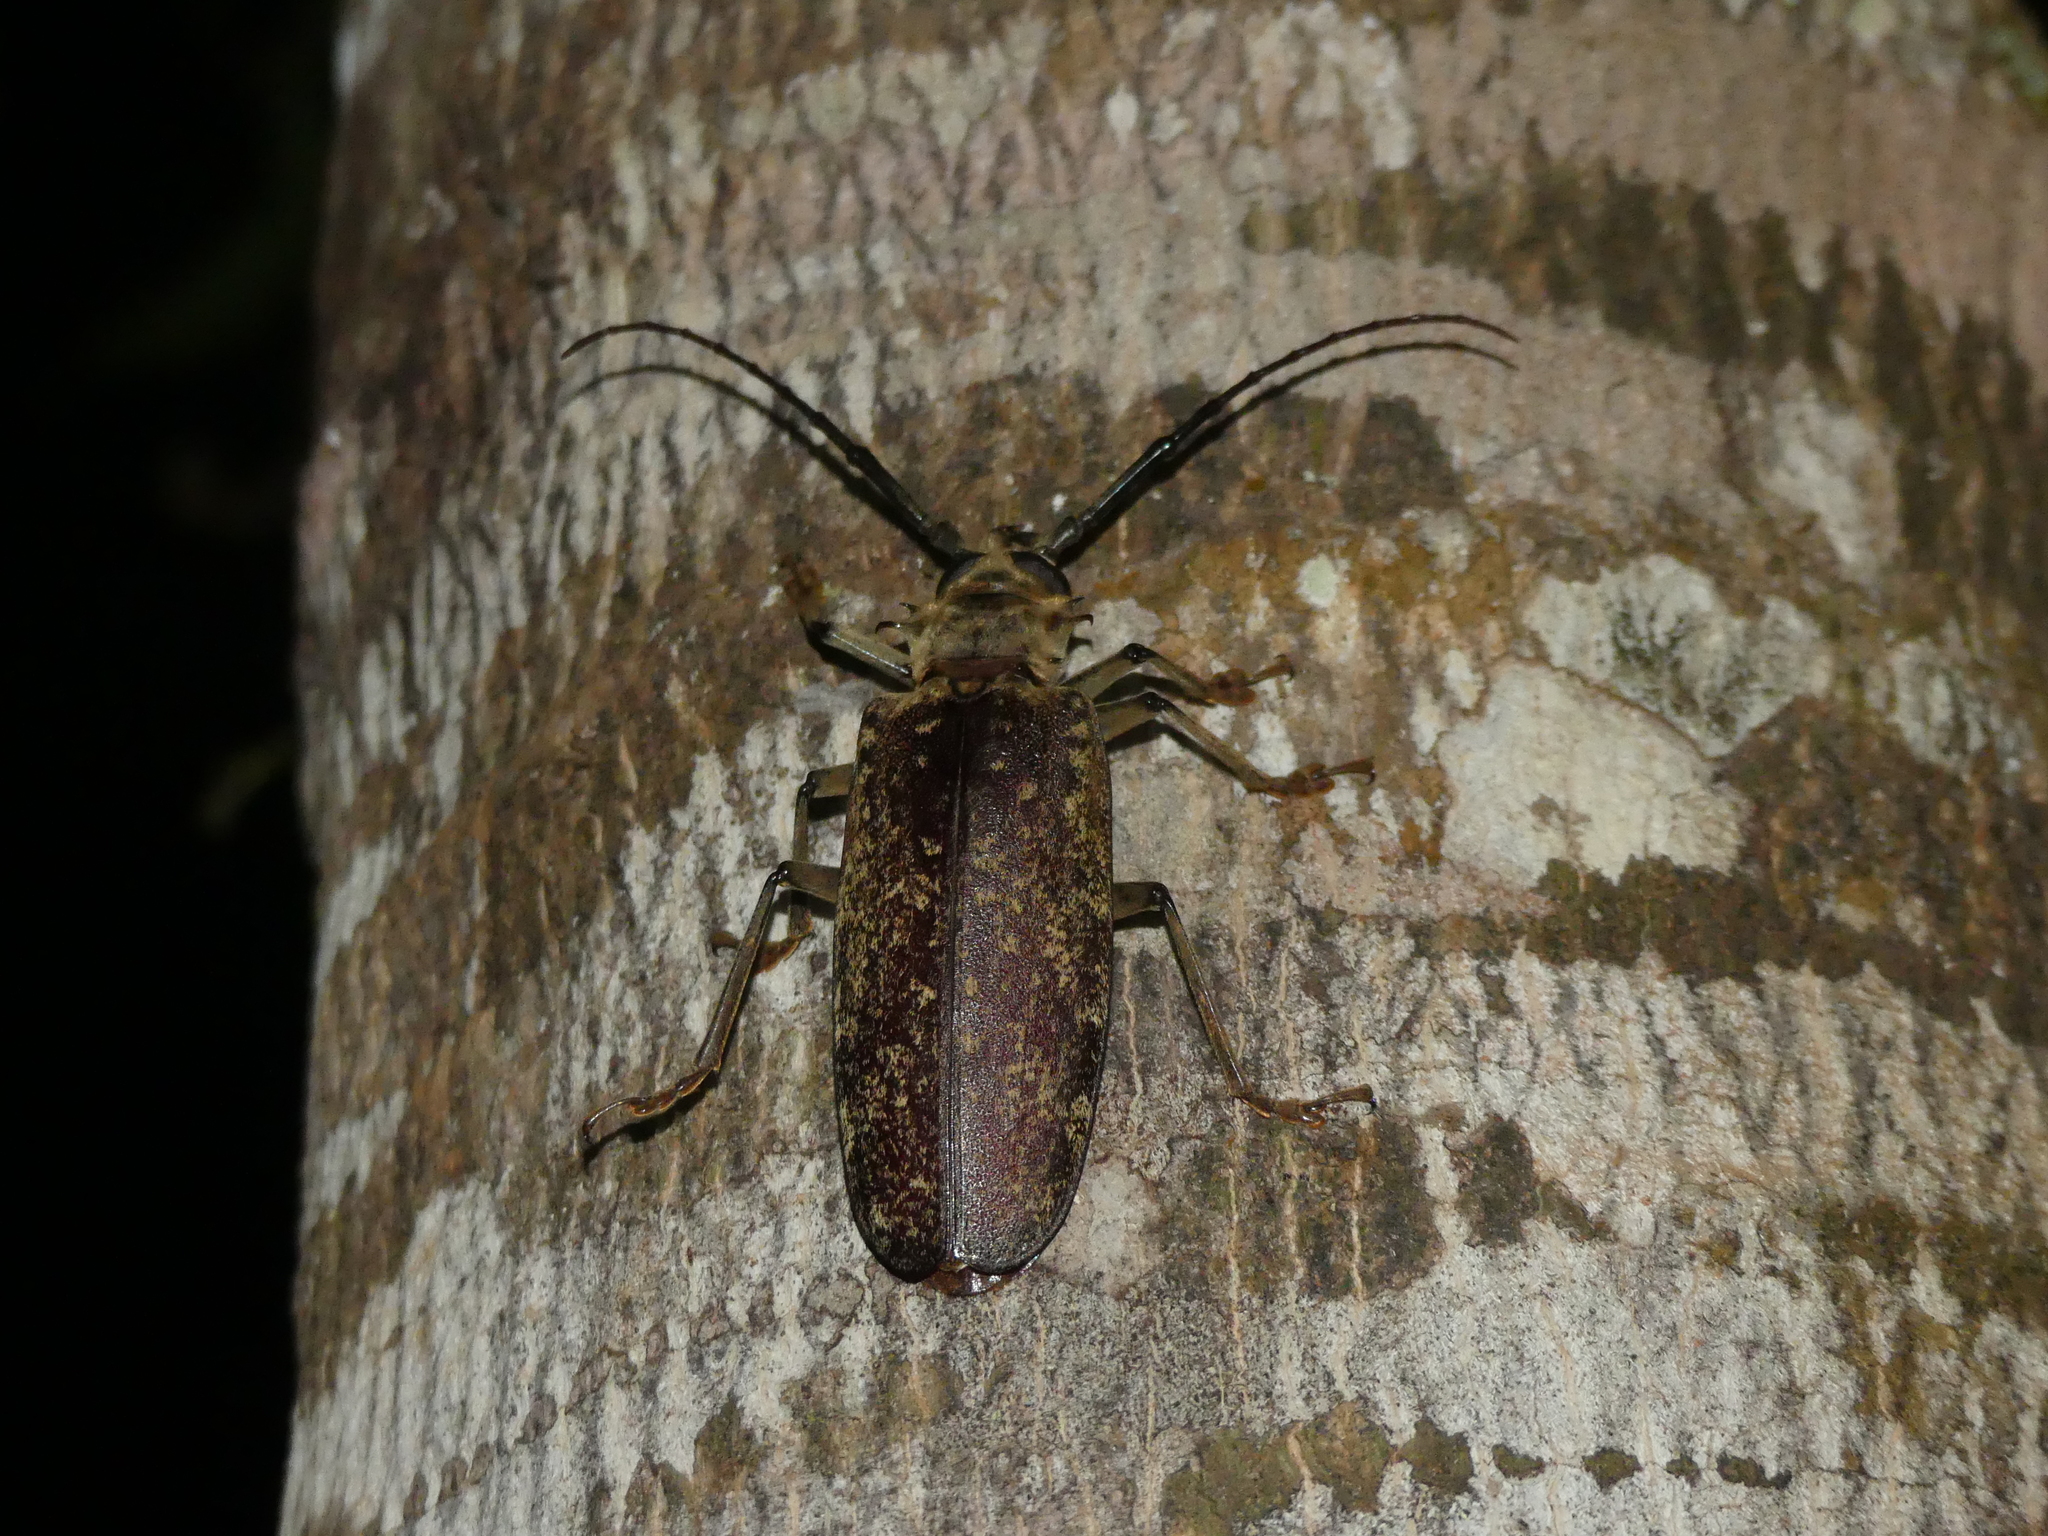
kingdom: Animalia
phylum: Arthropoda
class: Insecta
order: Coleoptera
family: Cerambycidae
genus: Tithoes
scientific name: Tithoes orientalis
